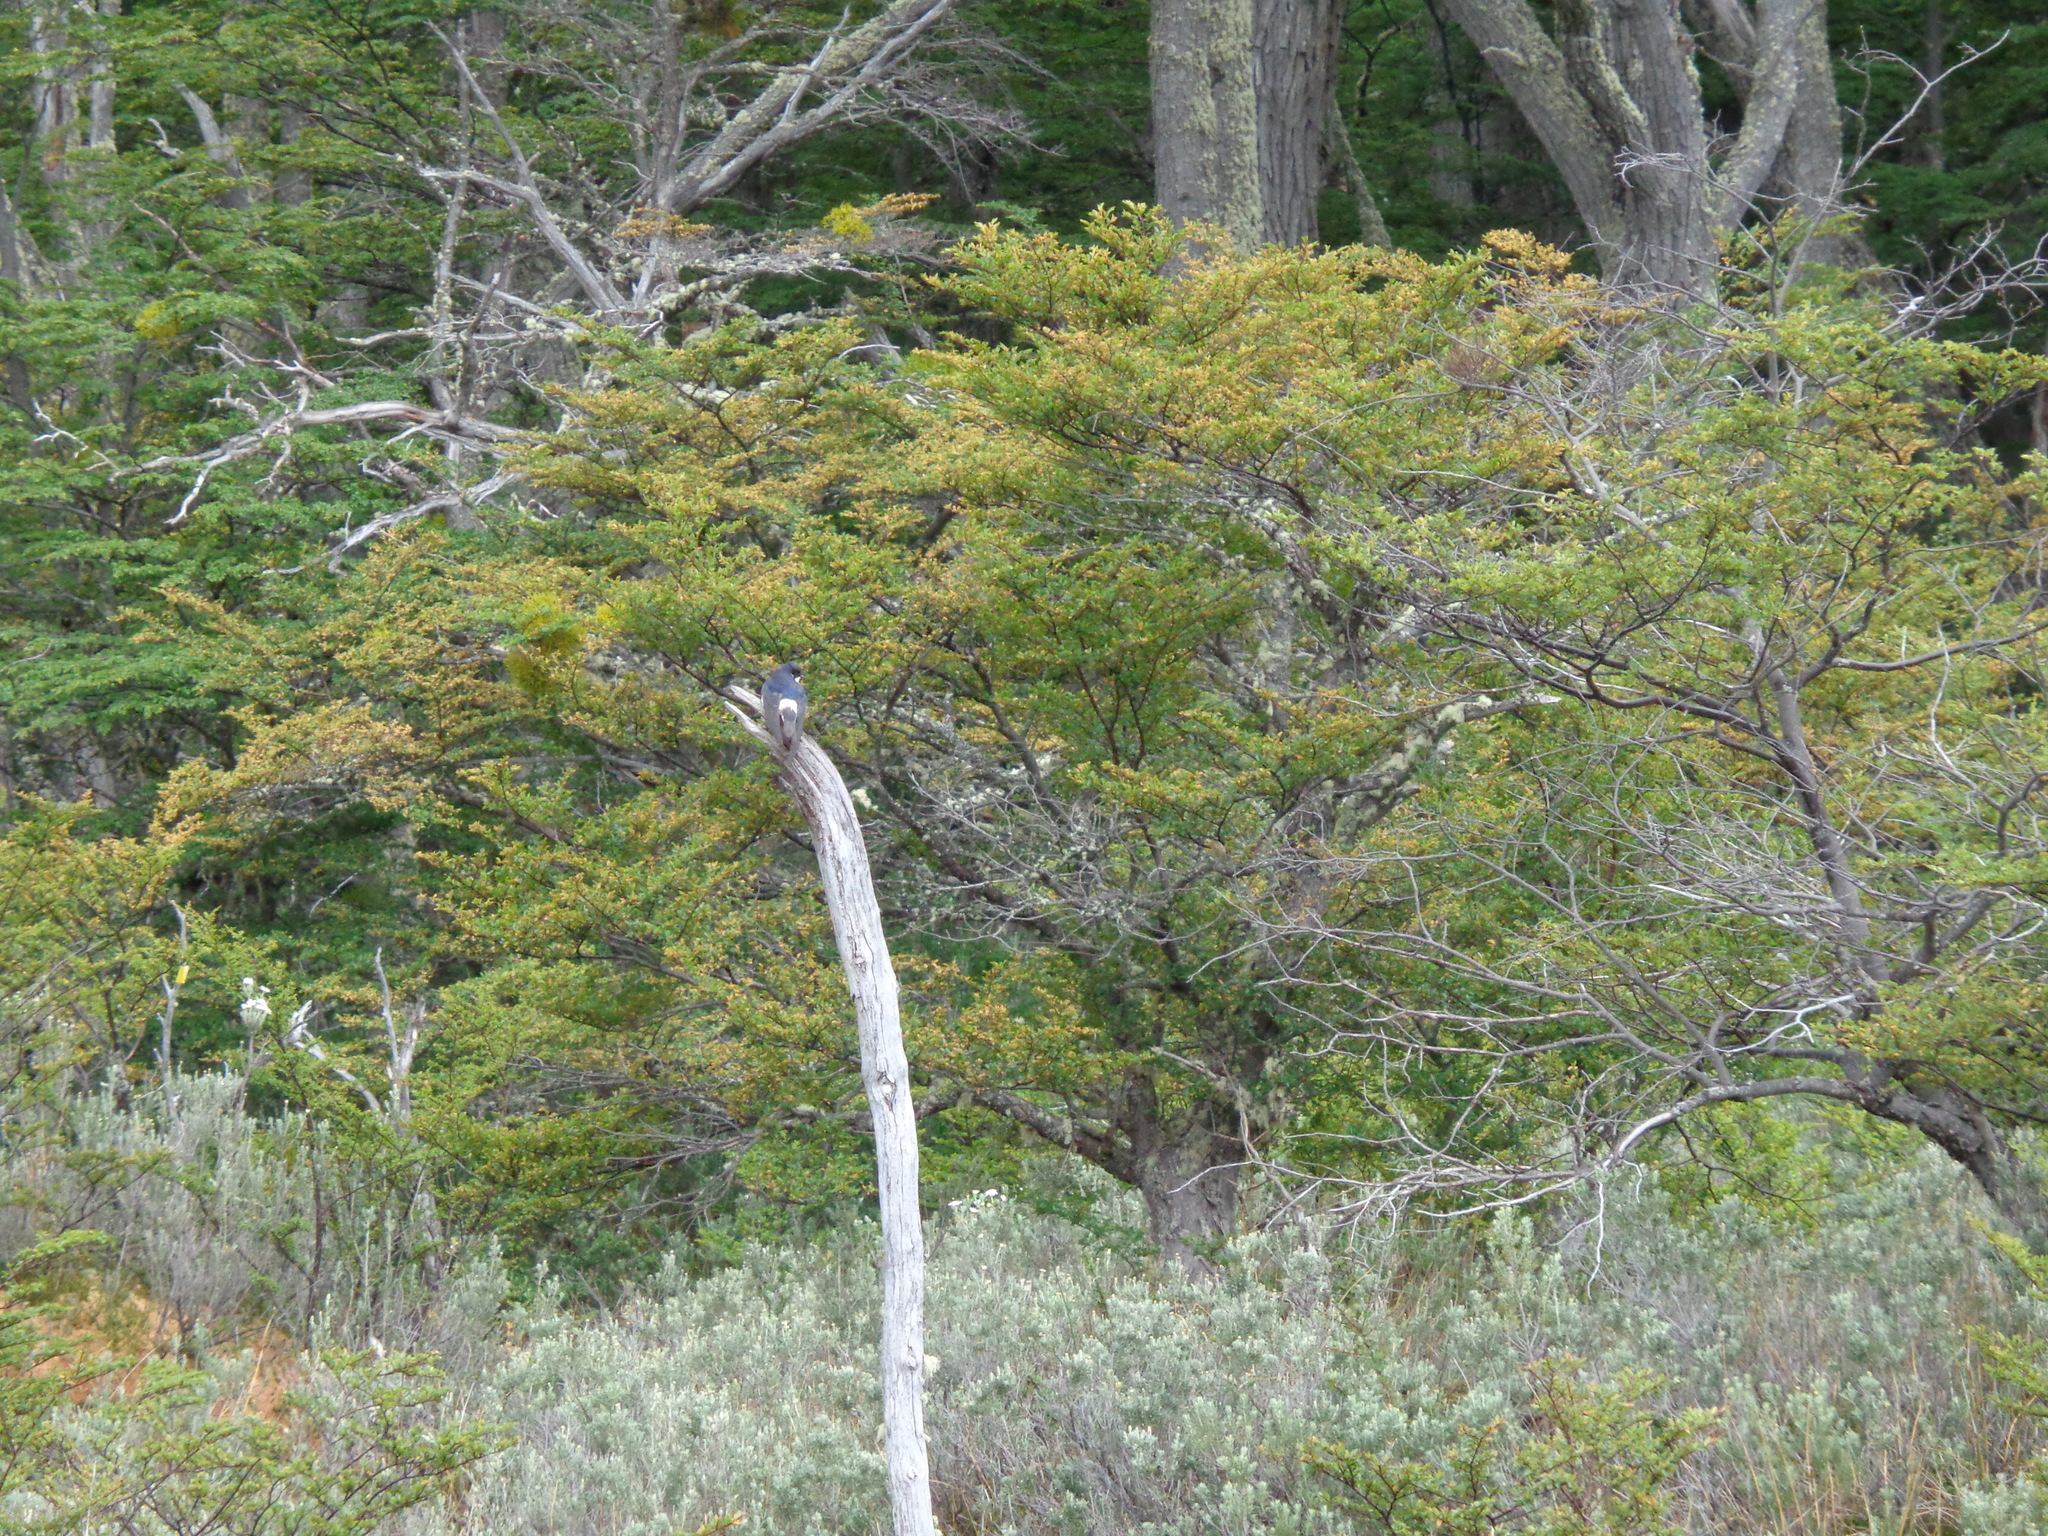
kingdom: Animalia
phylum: Chordata
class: Aves
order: Passeriformes
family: Hirundinidae
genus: Tachycineta
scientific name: Tachycineta leucopyga
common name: Chilean swallow
